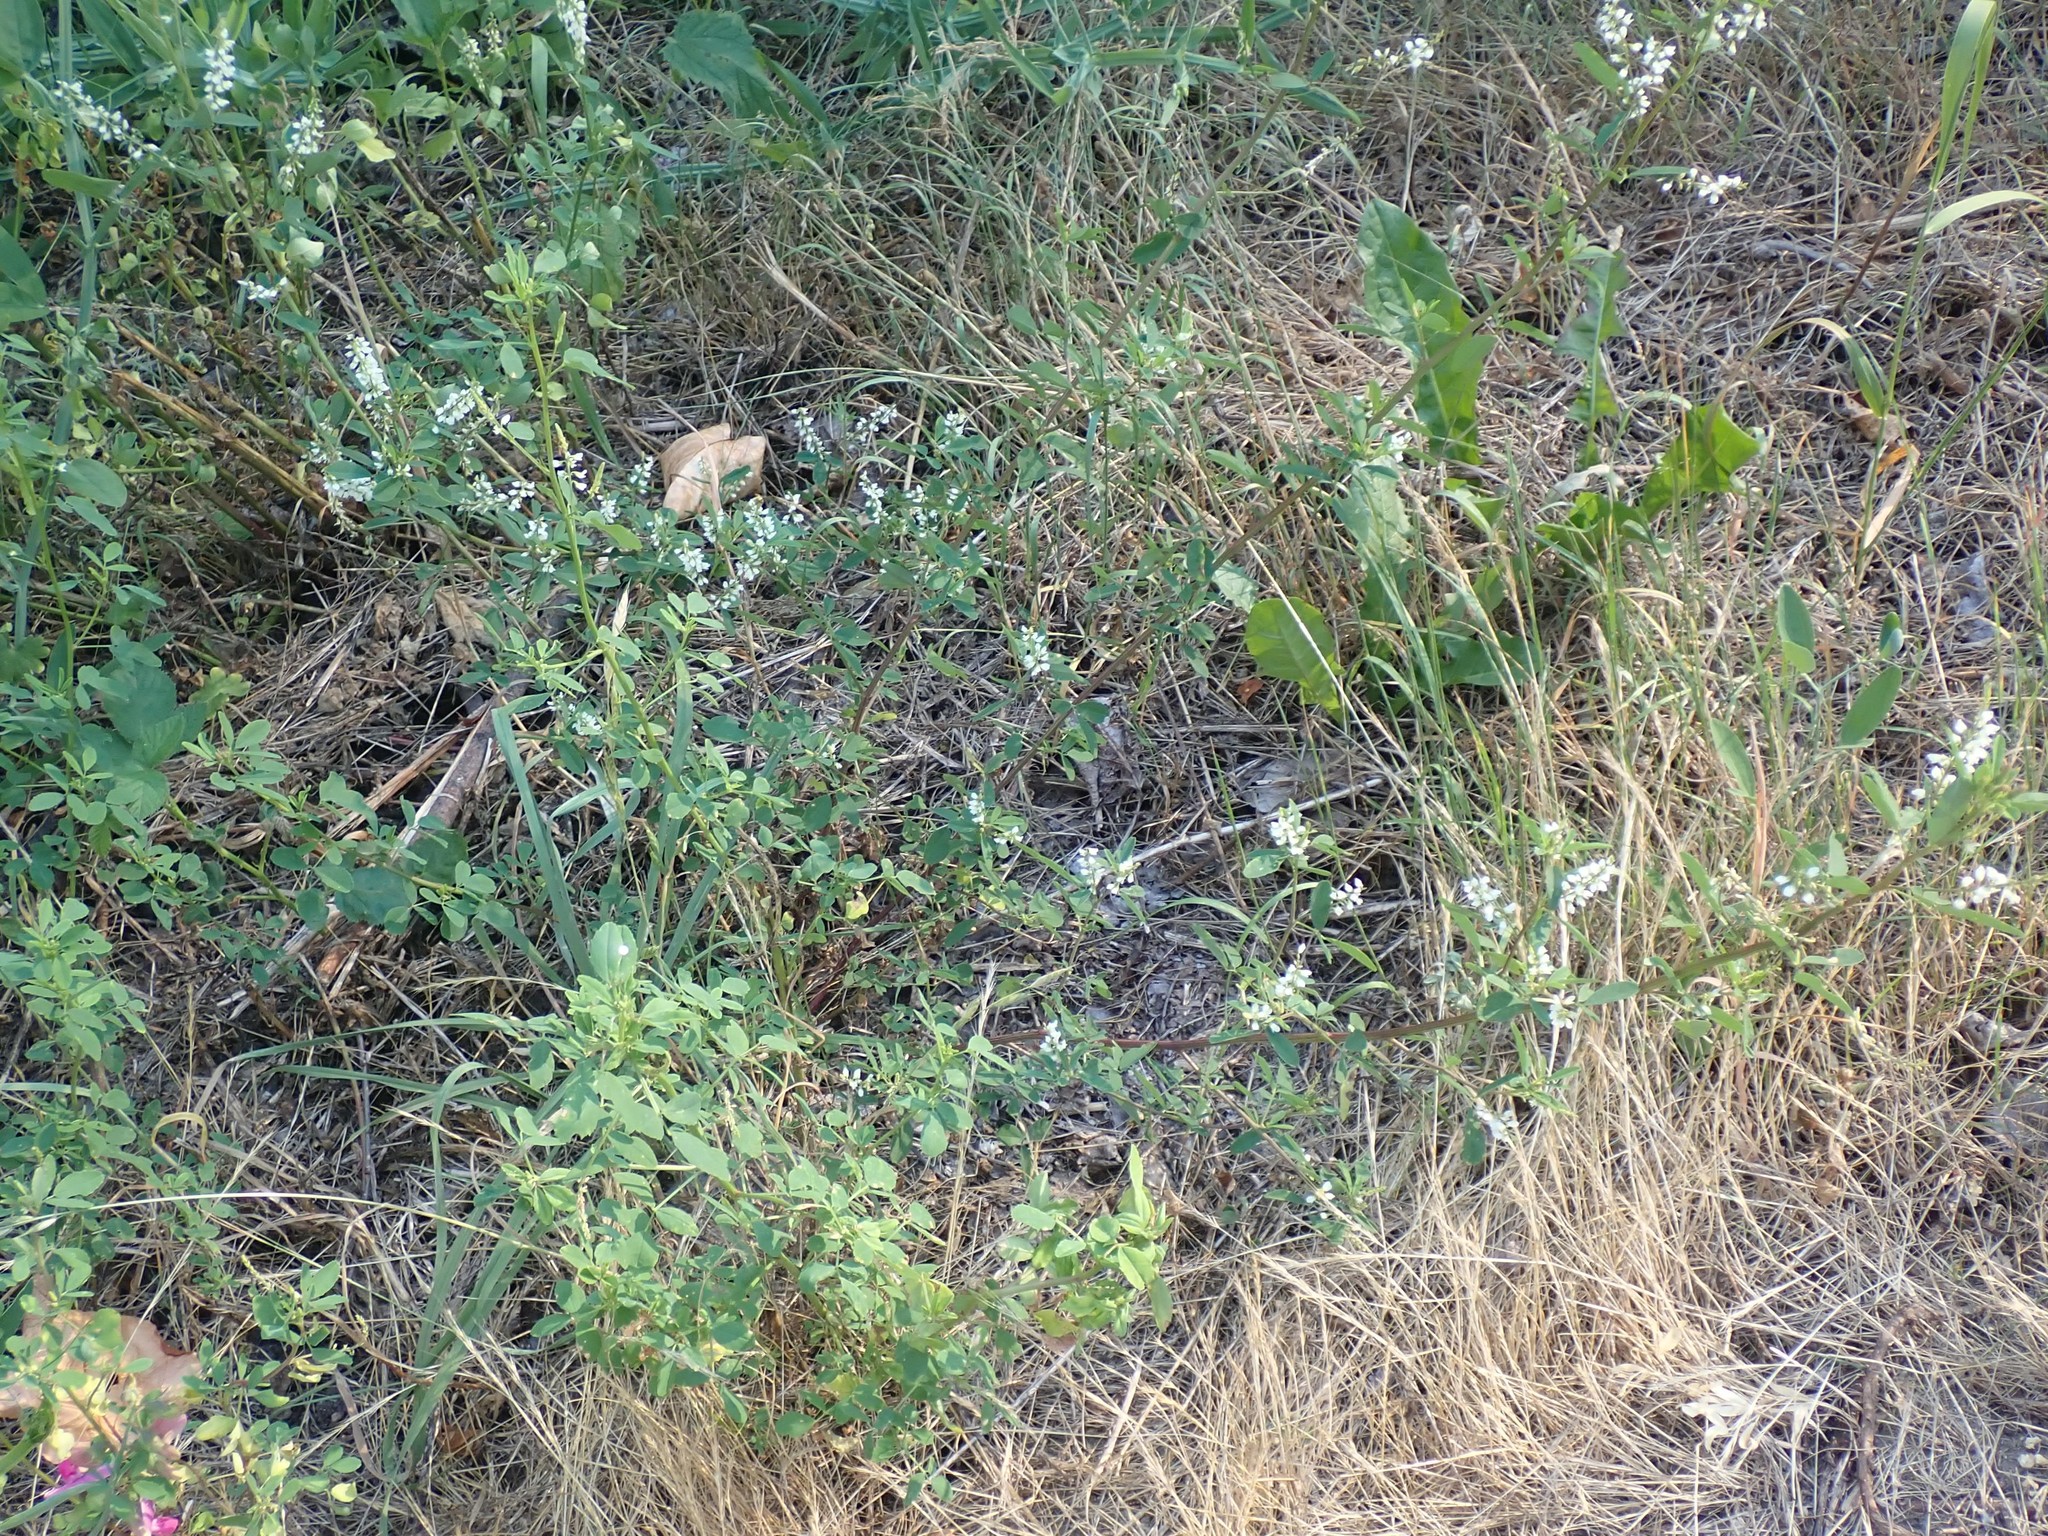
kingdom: Plantae
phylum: Tracheophyta
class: Magnoliopsida
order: Fabales
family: Fabaceae
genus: Melilotus
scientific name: Melilotus albus
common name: White melilot
